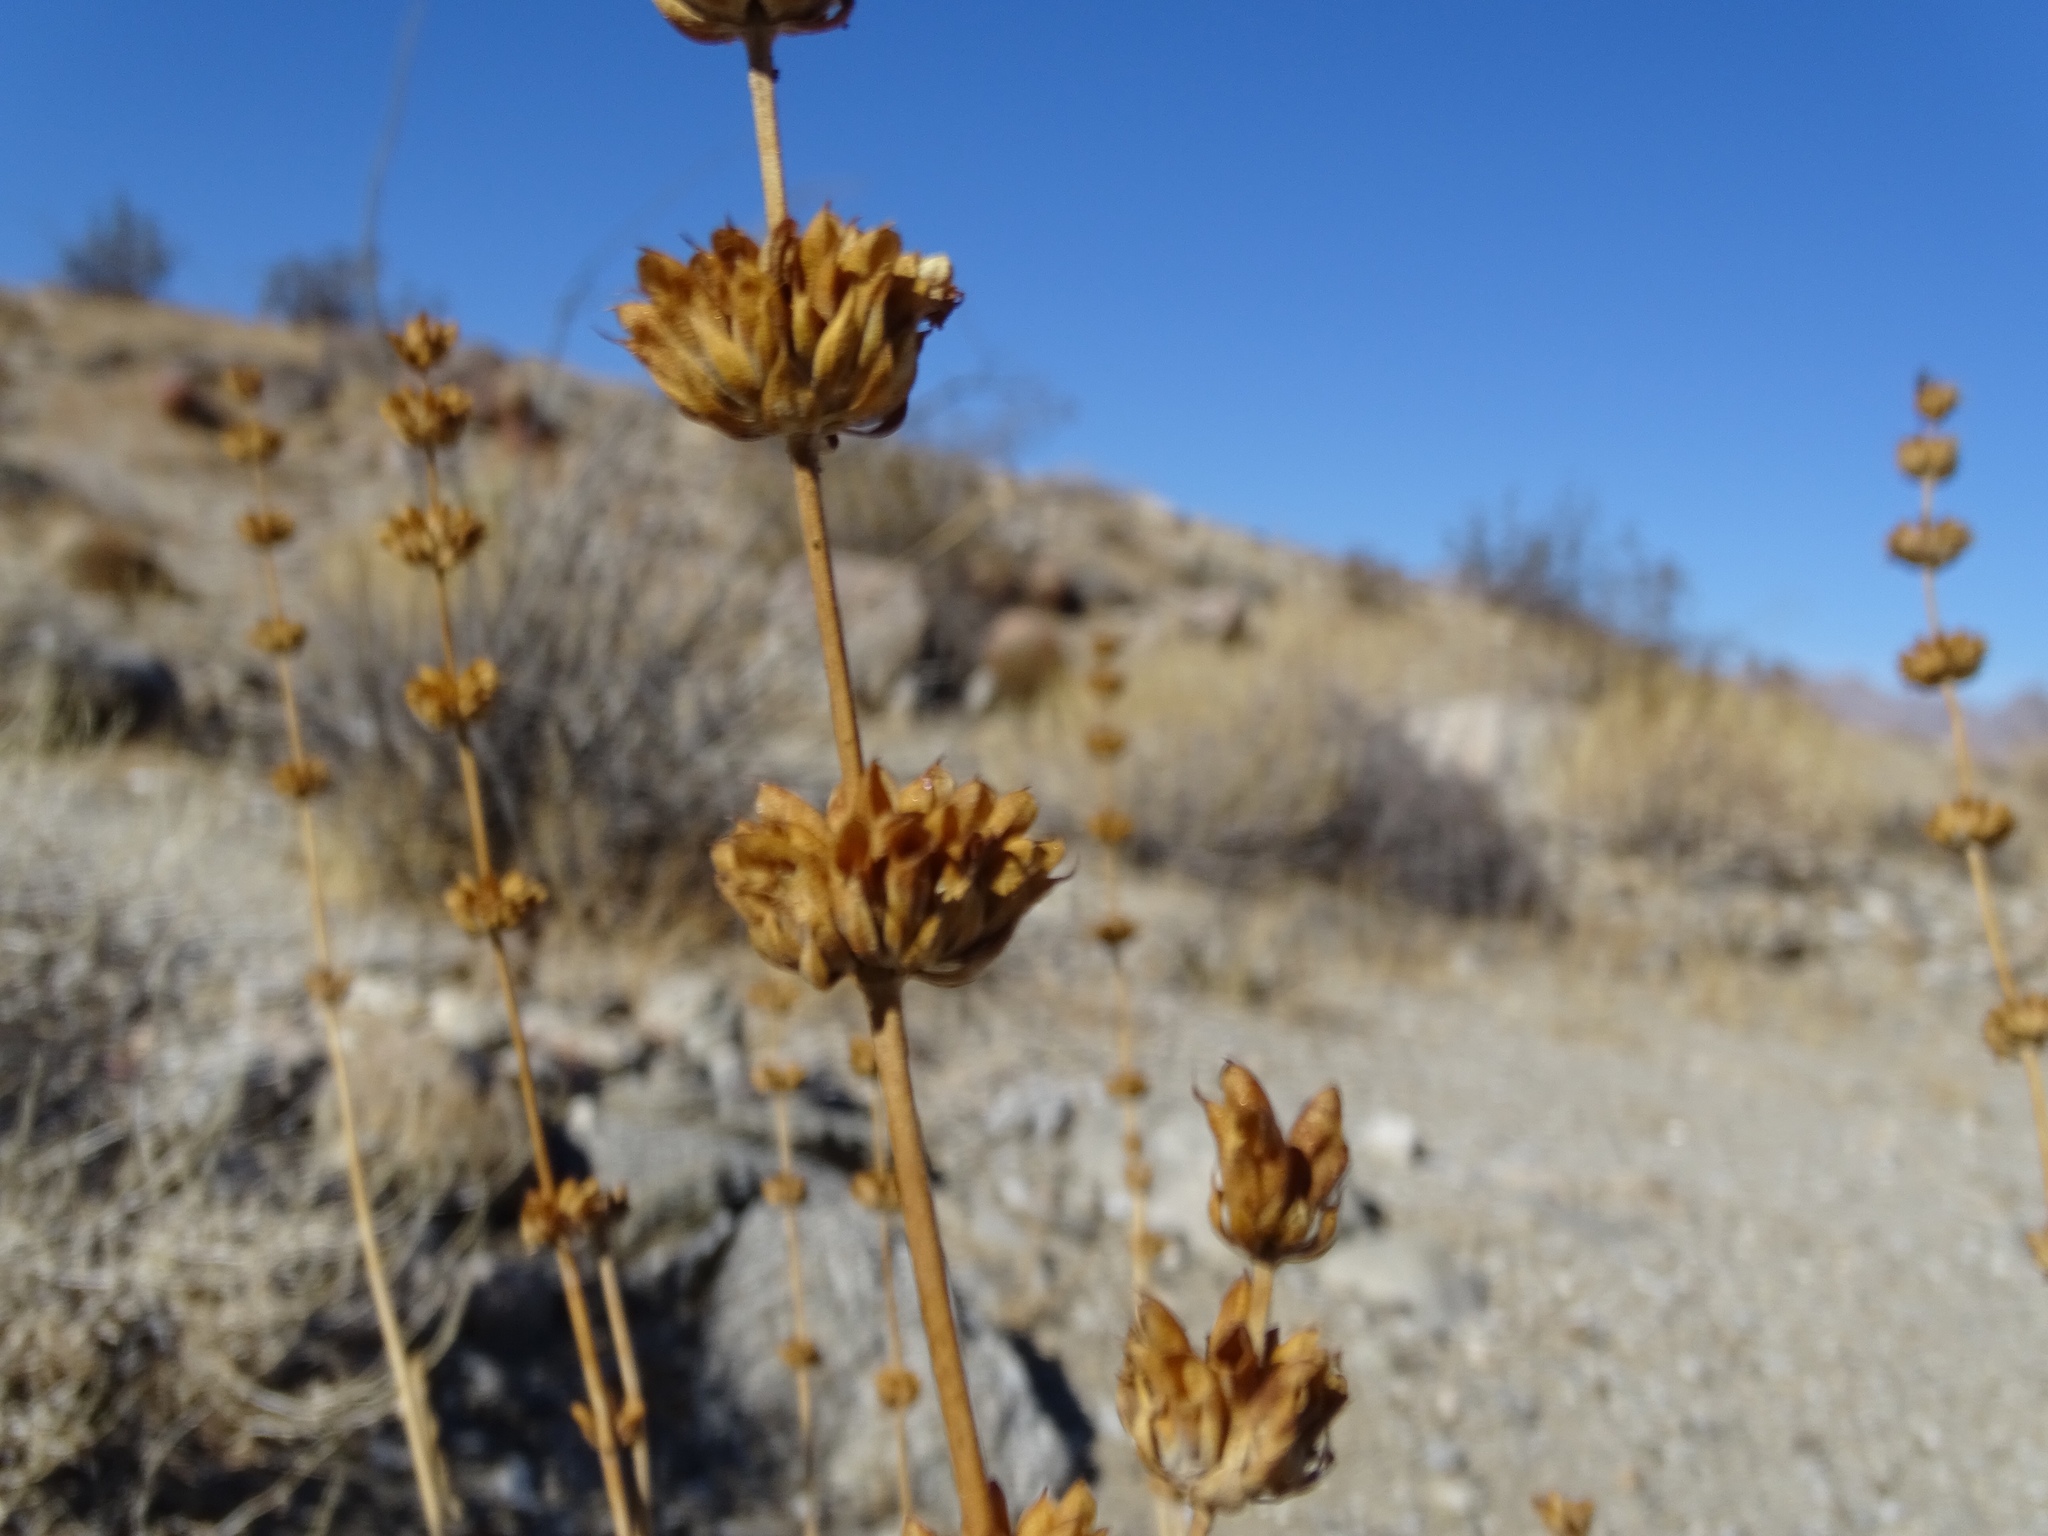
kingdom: Plantae
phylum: Tracheophyta
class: Magnoliopsida
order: Lamiales
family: Lamiaceae
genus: Salvia
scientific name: Salvia vaseyi
